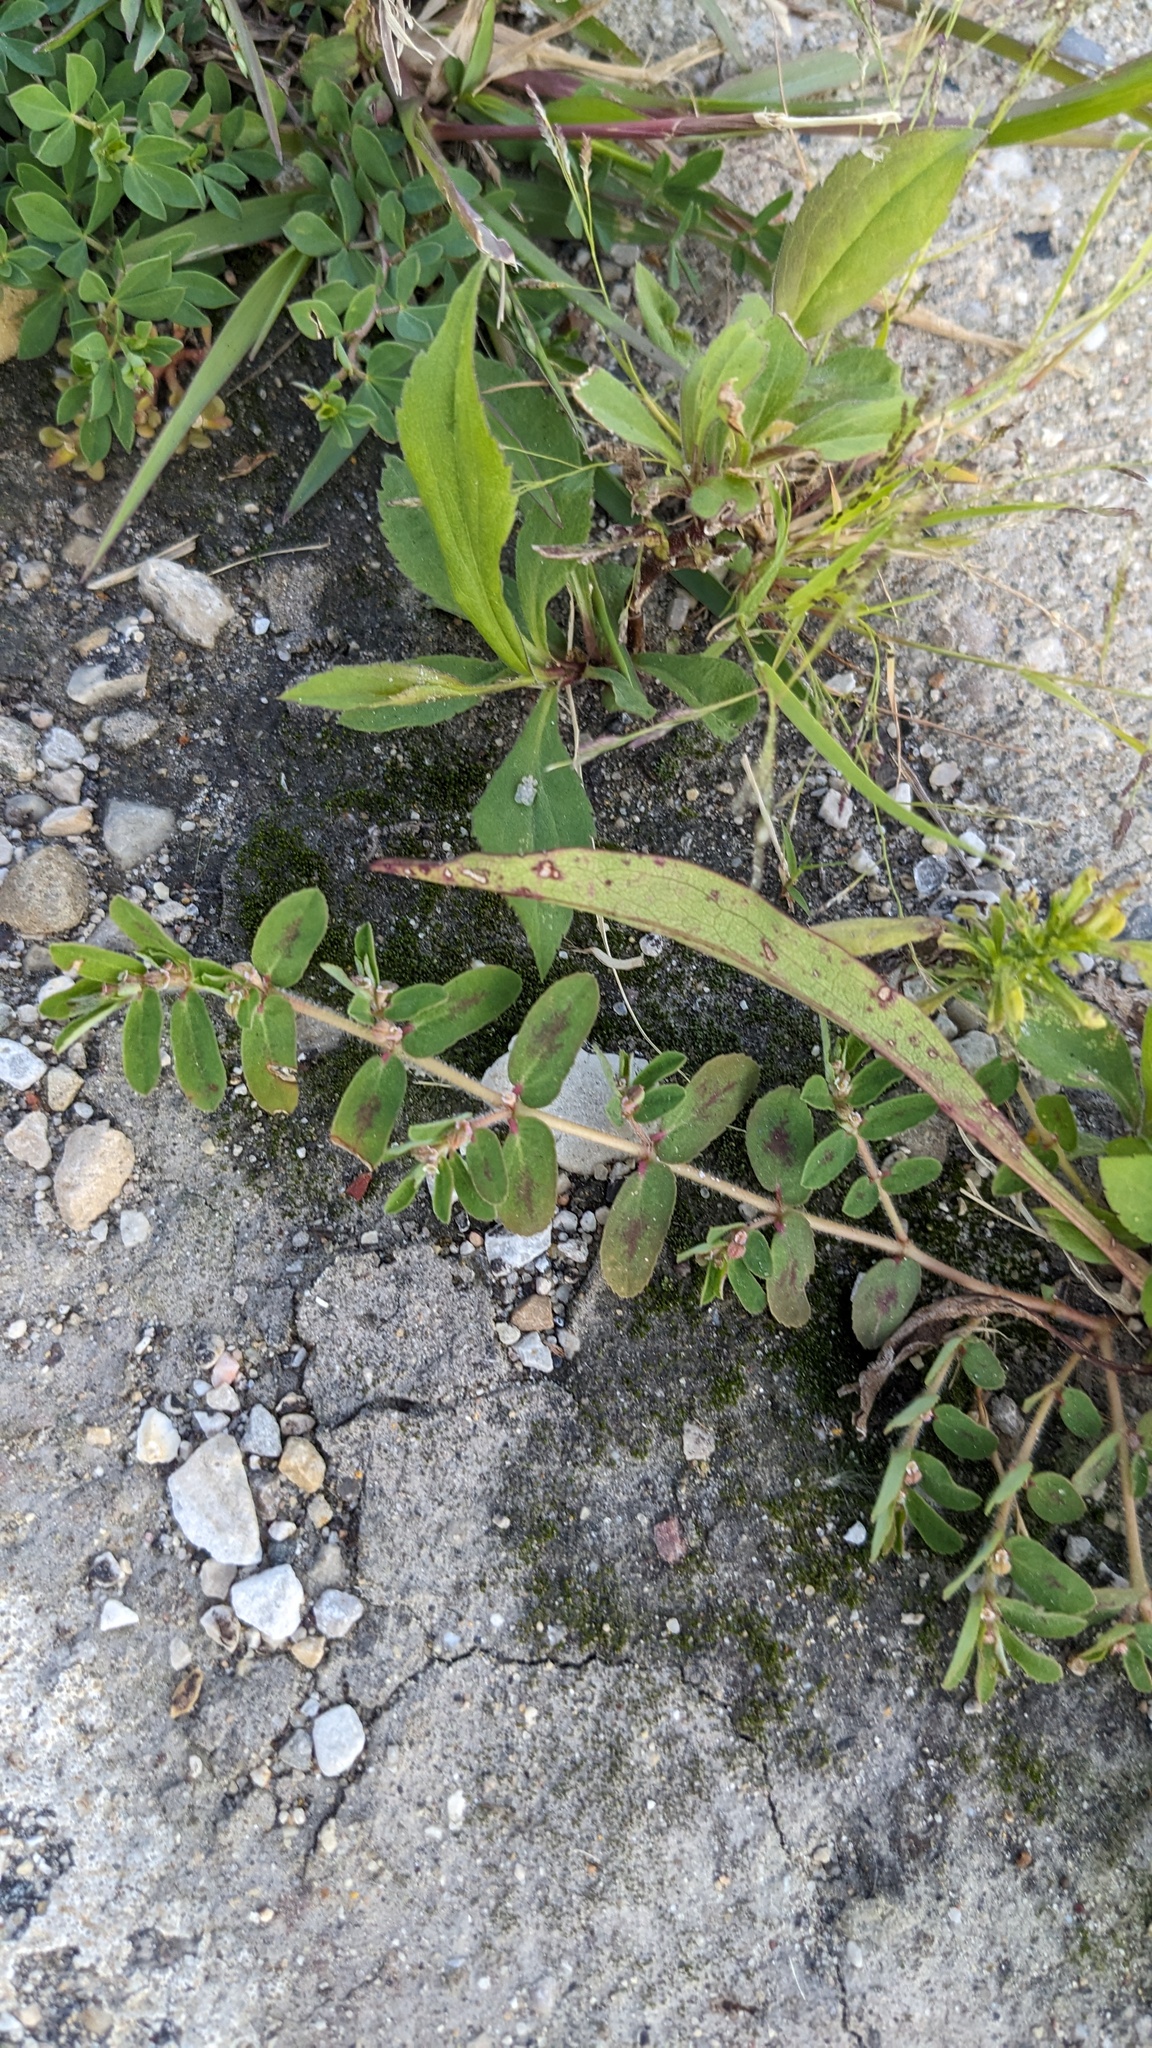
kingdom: Plantae
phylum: Tracheophyta
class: Magnoliopsida
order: Malpighiales
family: Euphorbiaceae
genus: Euphorbia
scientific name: Euphorbia maculata
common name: Spotted spurge
